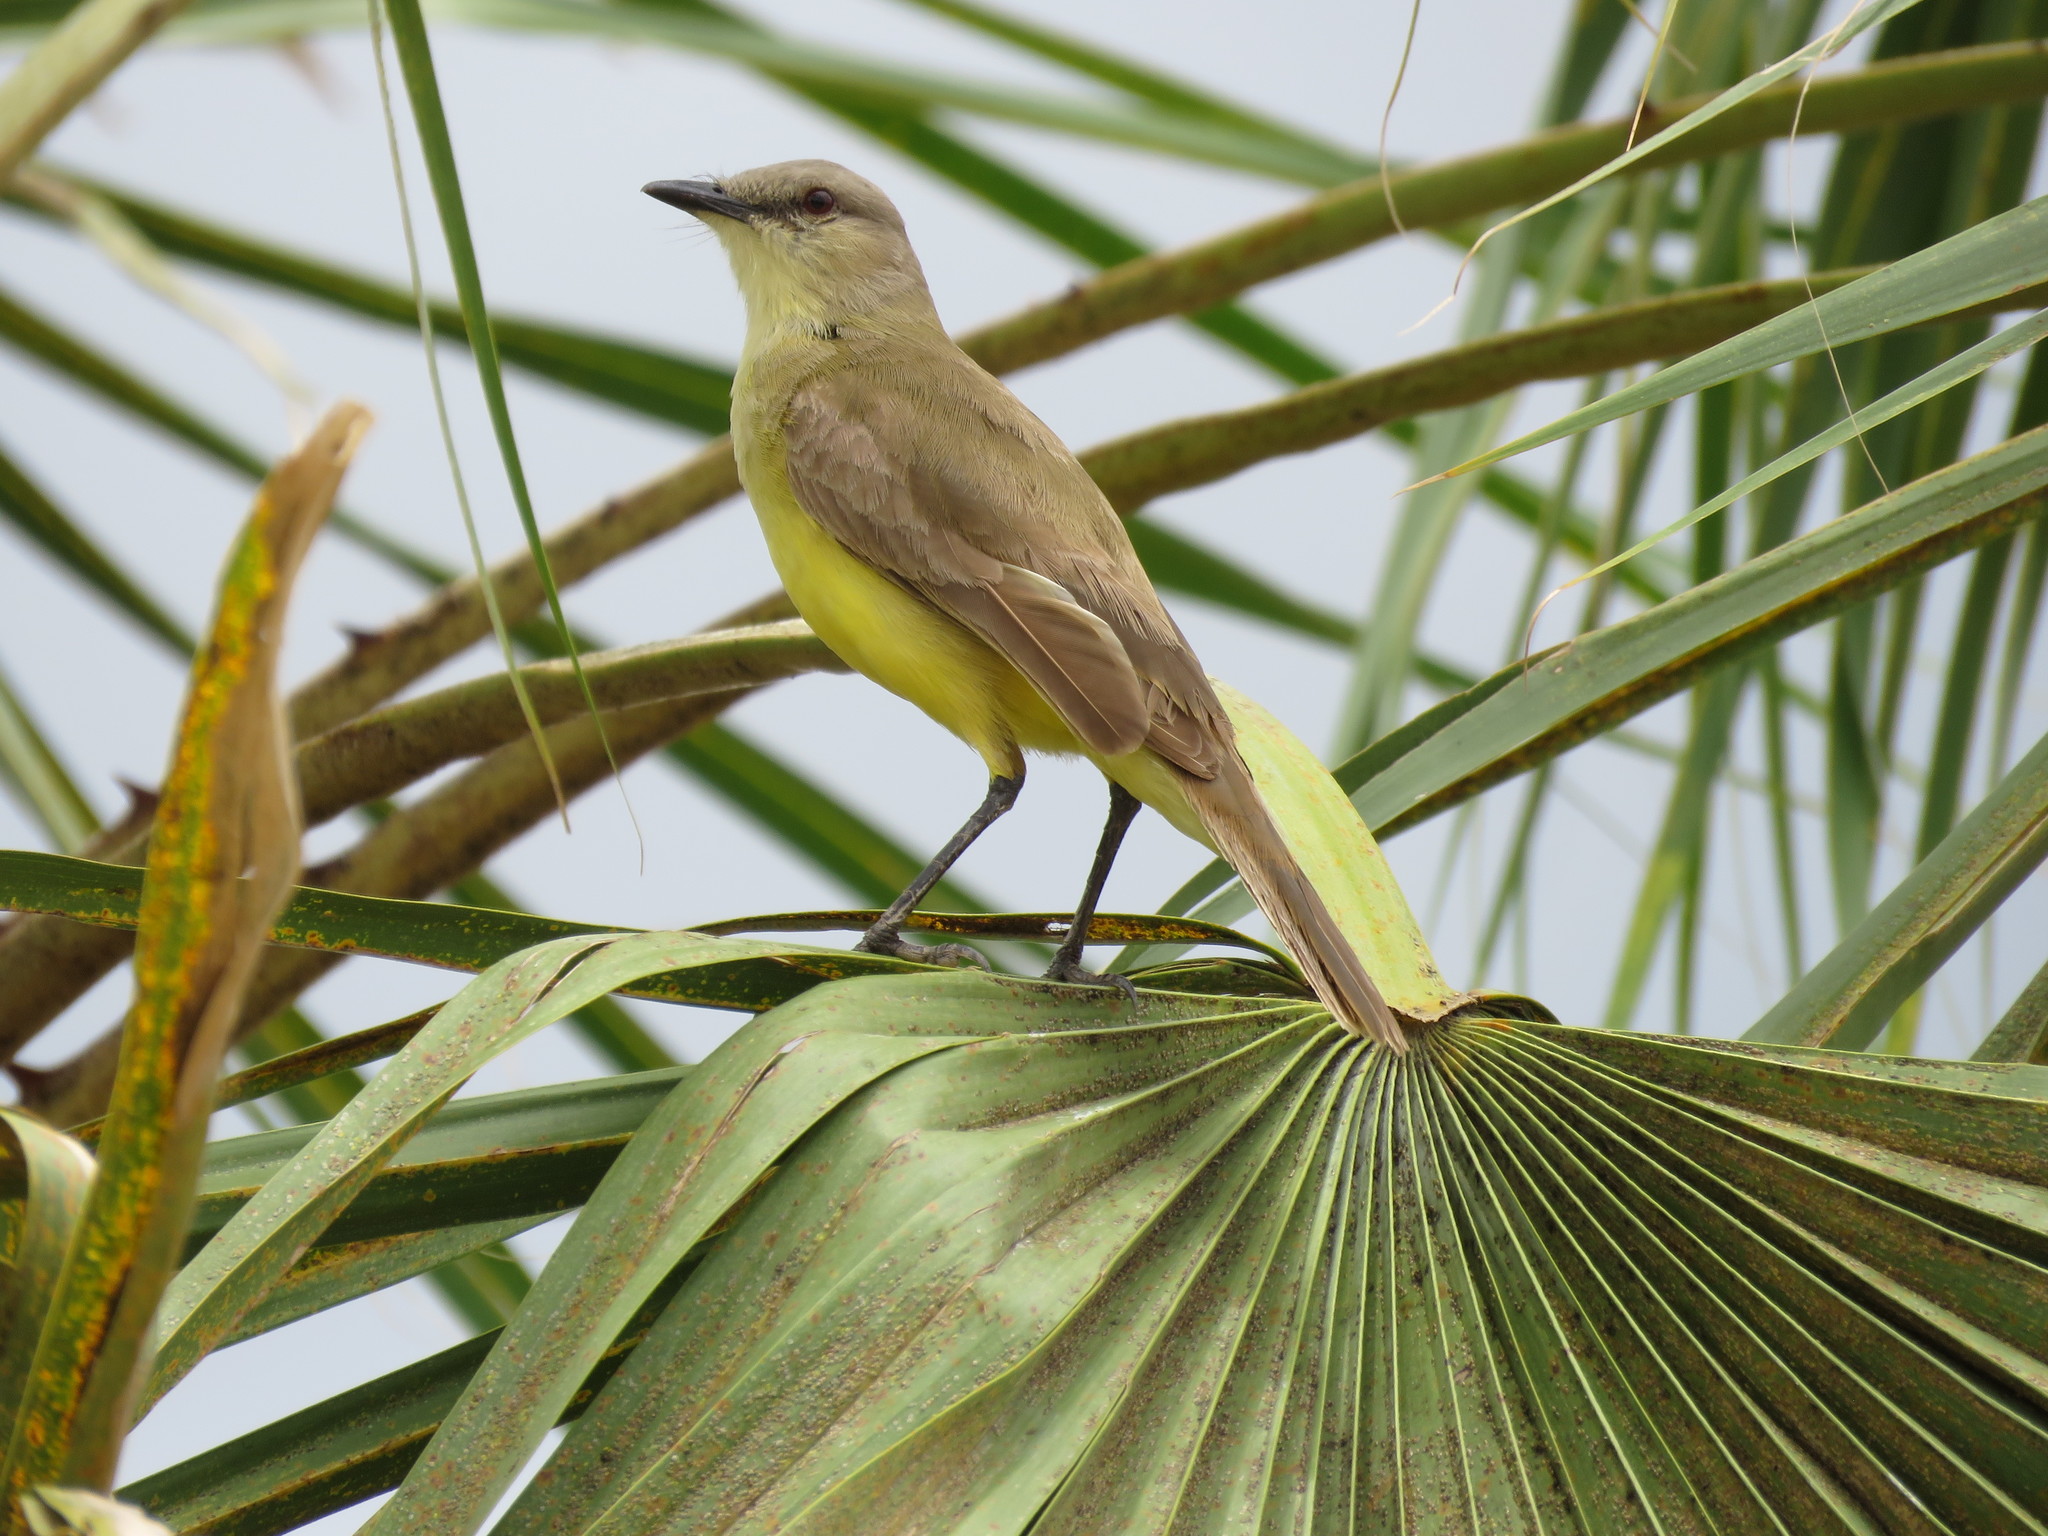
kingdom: Animalia
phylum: Chordata
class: Aves
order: Passeriformes
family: Tyrannidae
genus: Machetornis
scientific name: Machetornis rixosa
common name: Cattle tyrant
